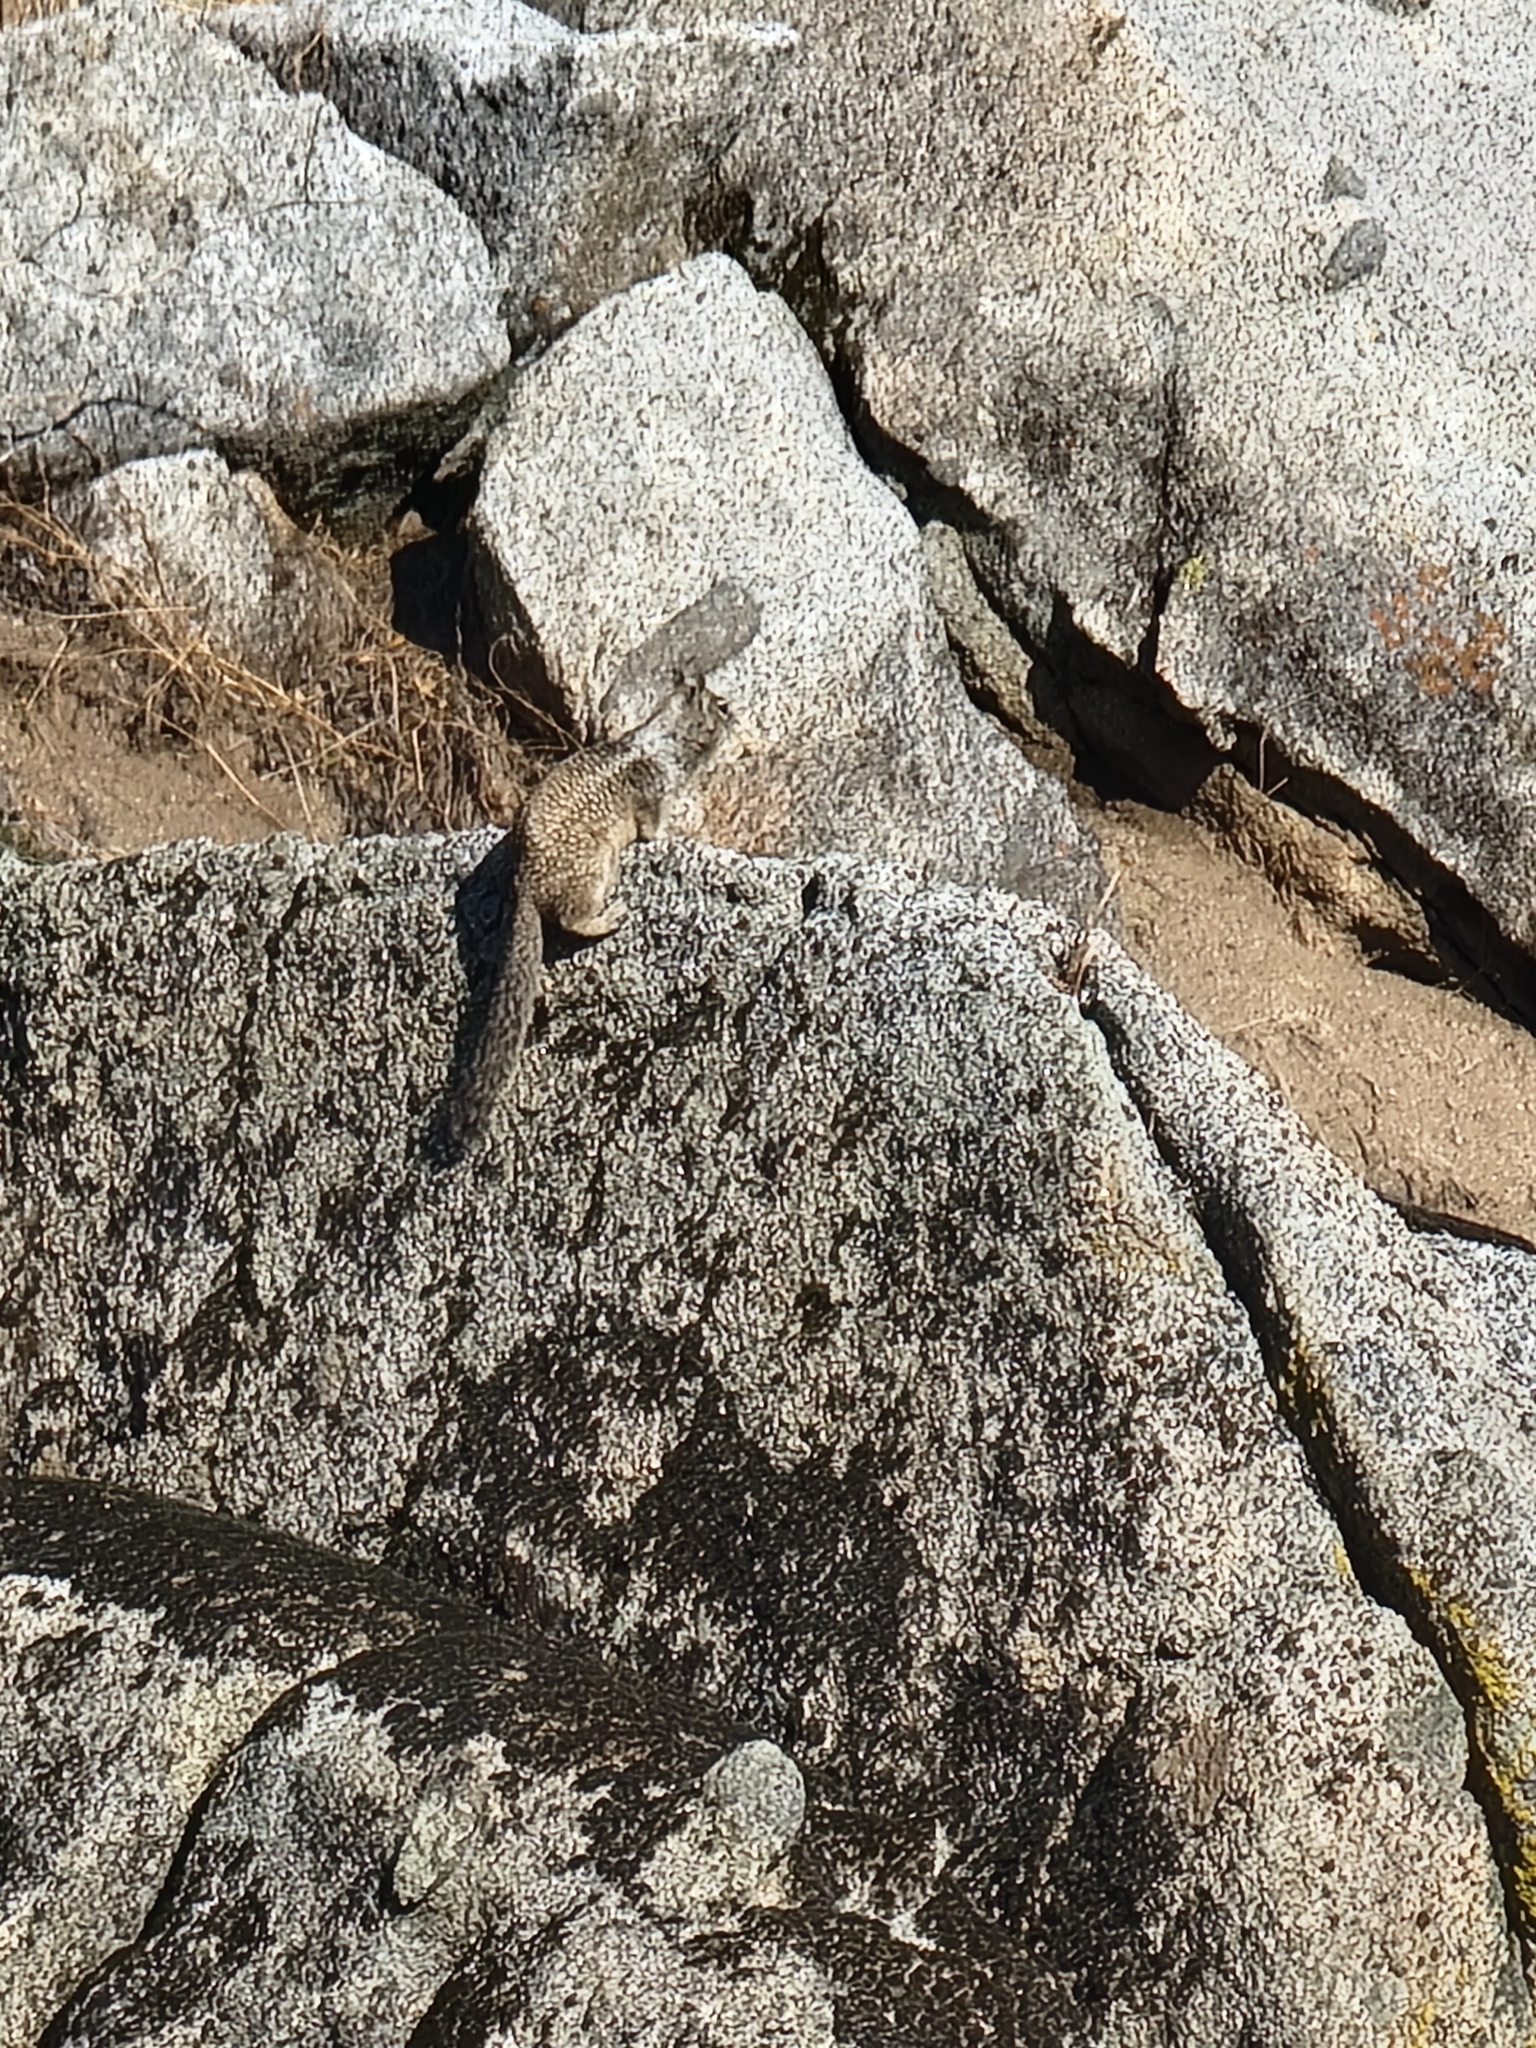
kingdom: Animalia
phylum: Chordata
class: Mammalia
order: Rodentia
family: Sciuridae
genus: Otospermophilus
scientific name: Otospermophilus beecheyi
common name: California ground squirrel
